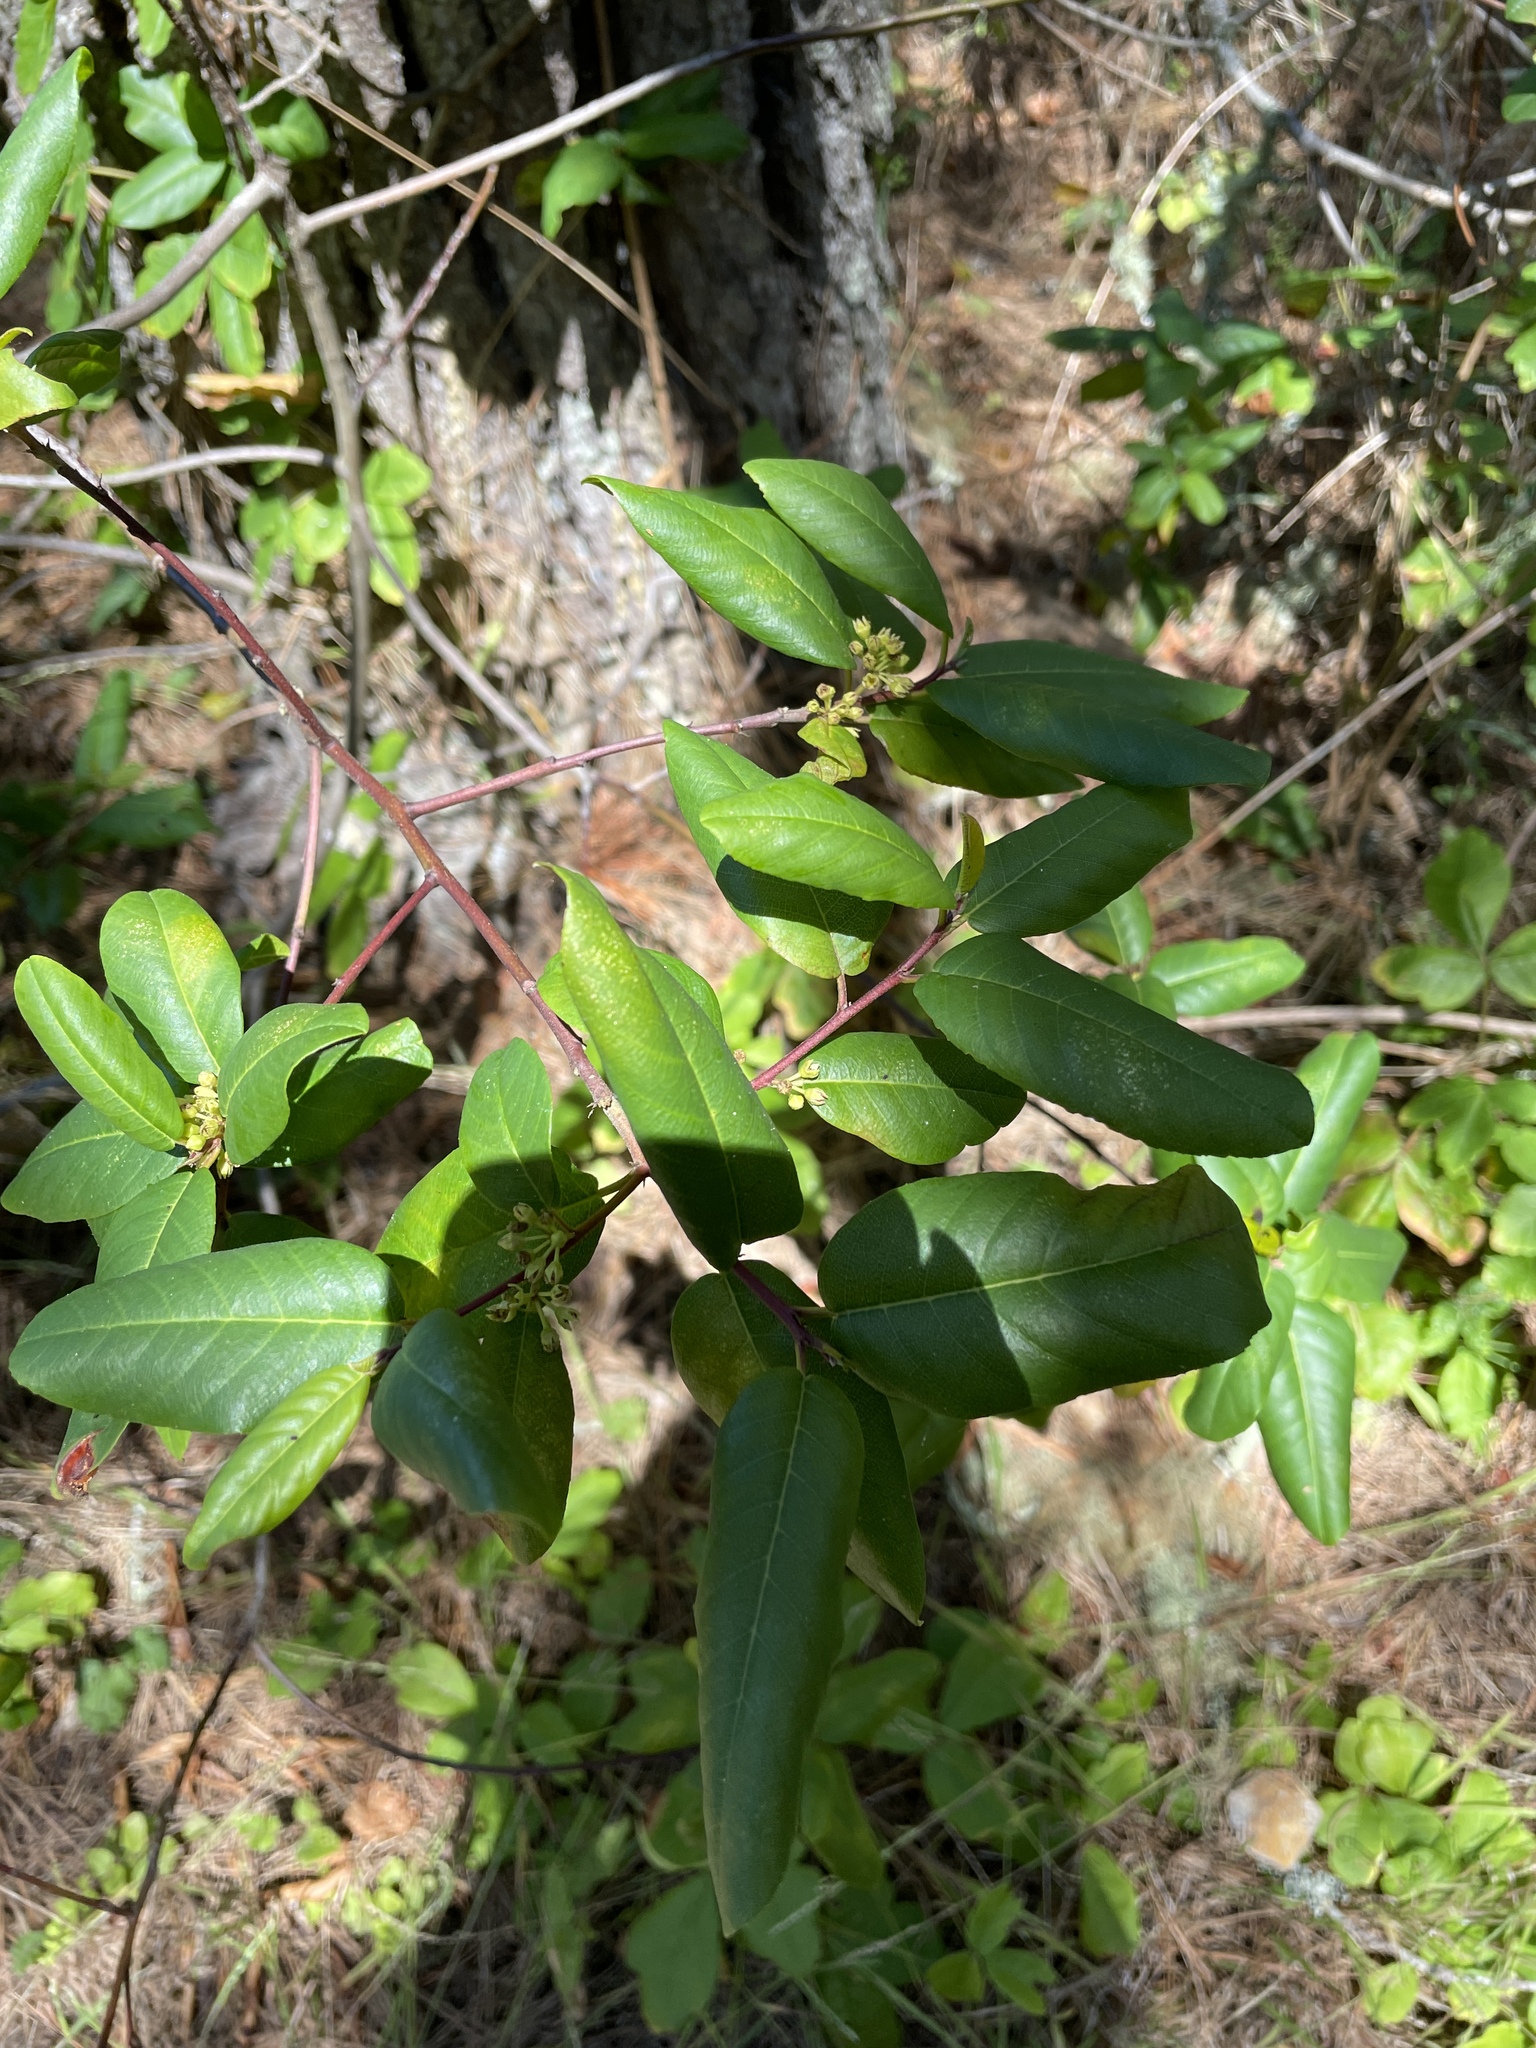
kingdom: Plantae
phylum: Tracheophyta
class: Magnoliopsida
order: Rosales
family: Rhamnaceae
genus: Frangula
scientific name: Frangula californica
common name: California buckthorn
